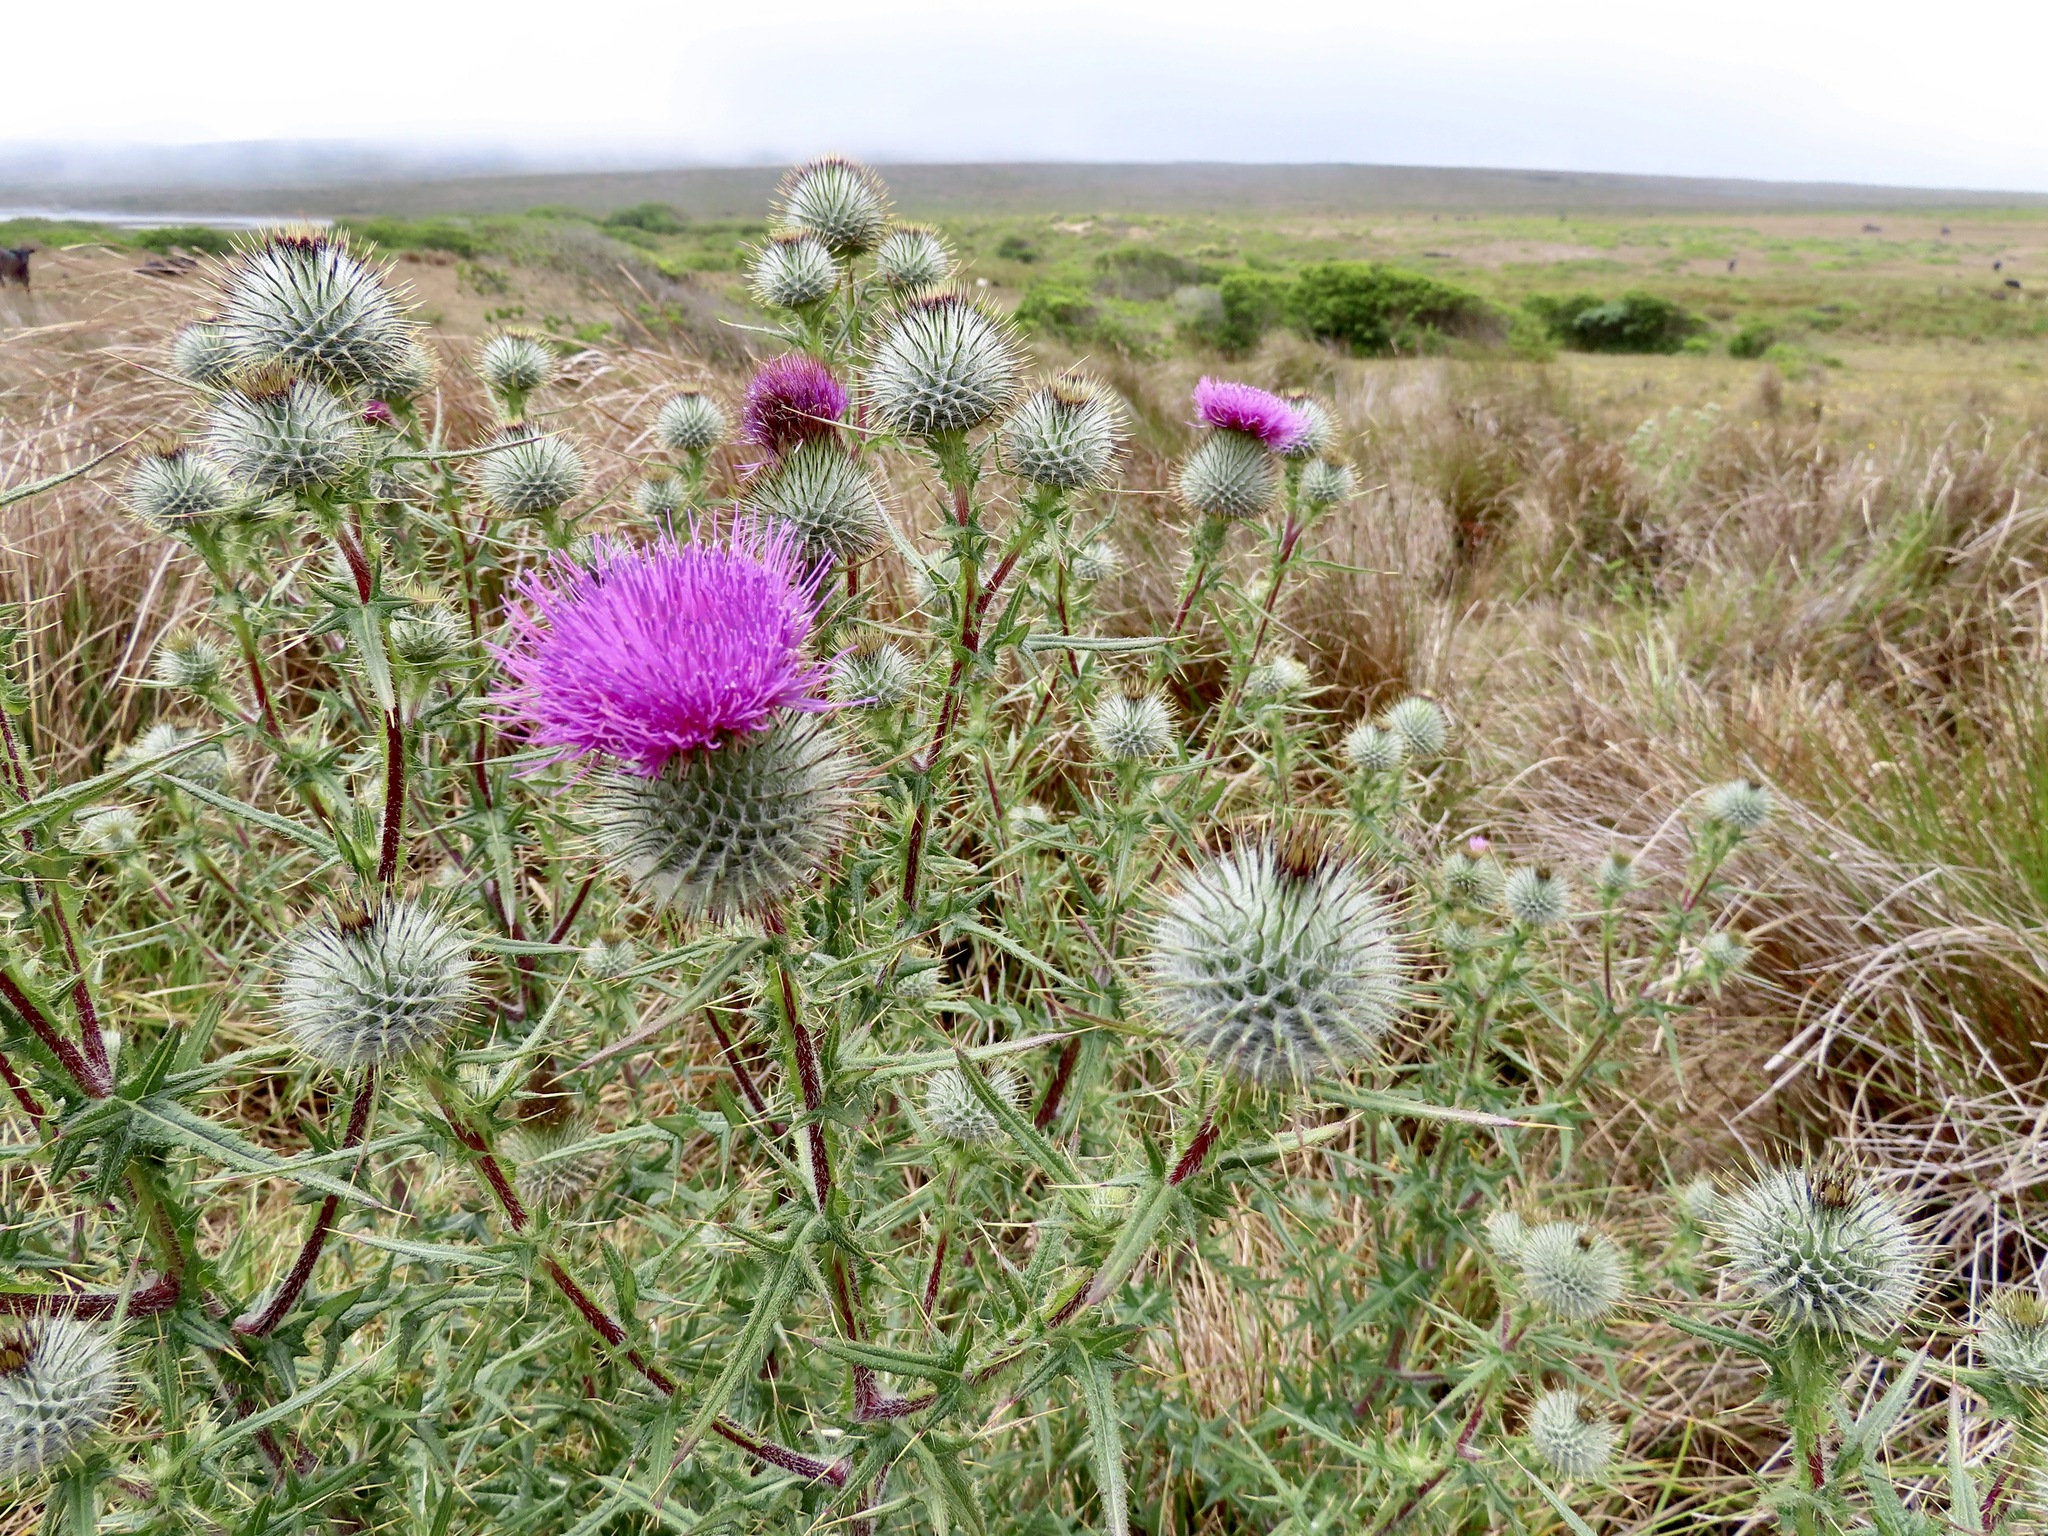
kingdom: Plantae
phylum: Tracheophyta
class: Magnoliopsida
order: Asterales
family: Asteraceae
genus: Cirsium
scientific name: Cirsium vulgare
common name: Bull thistle
